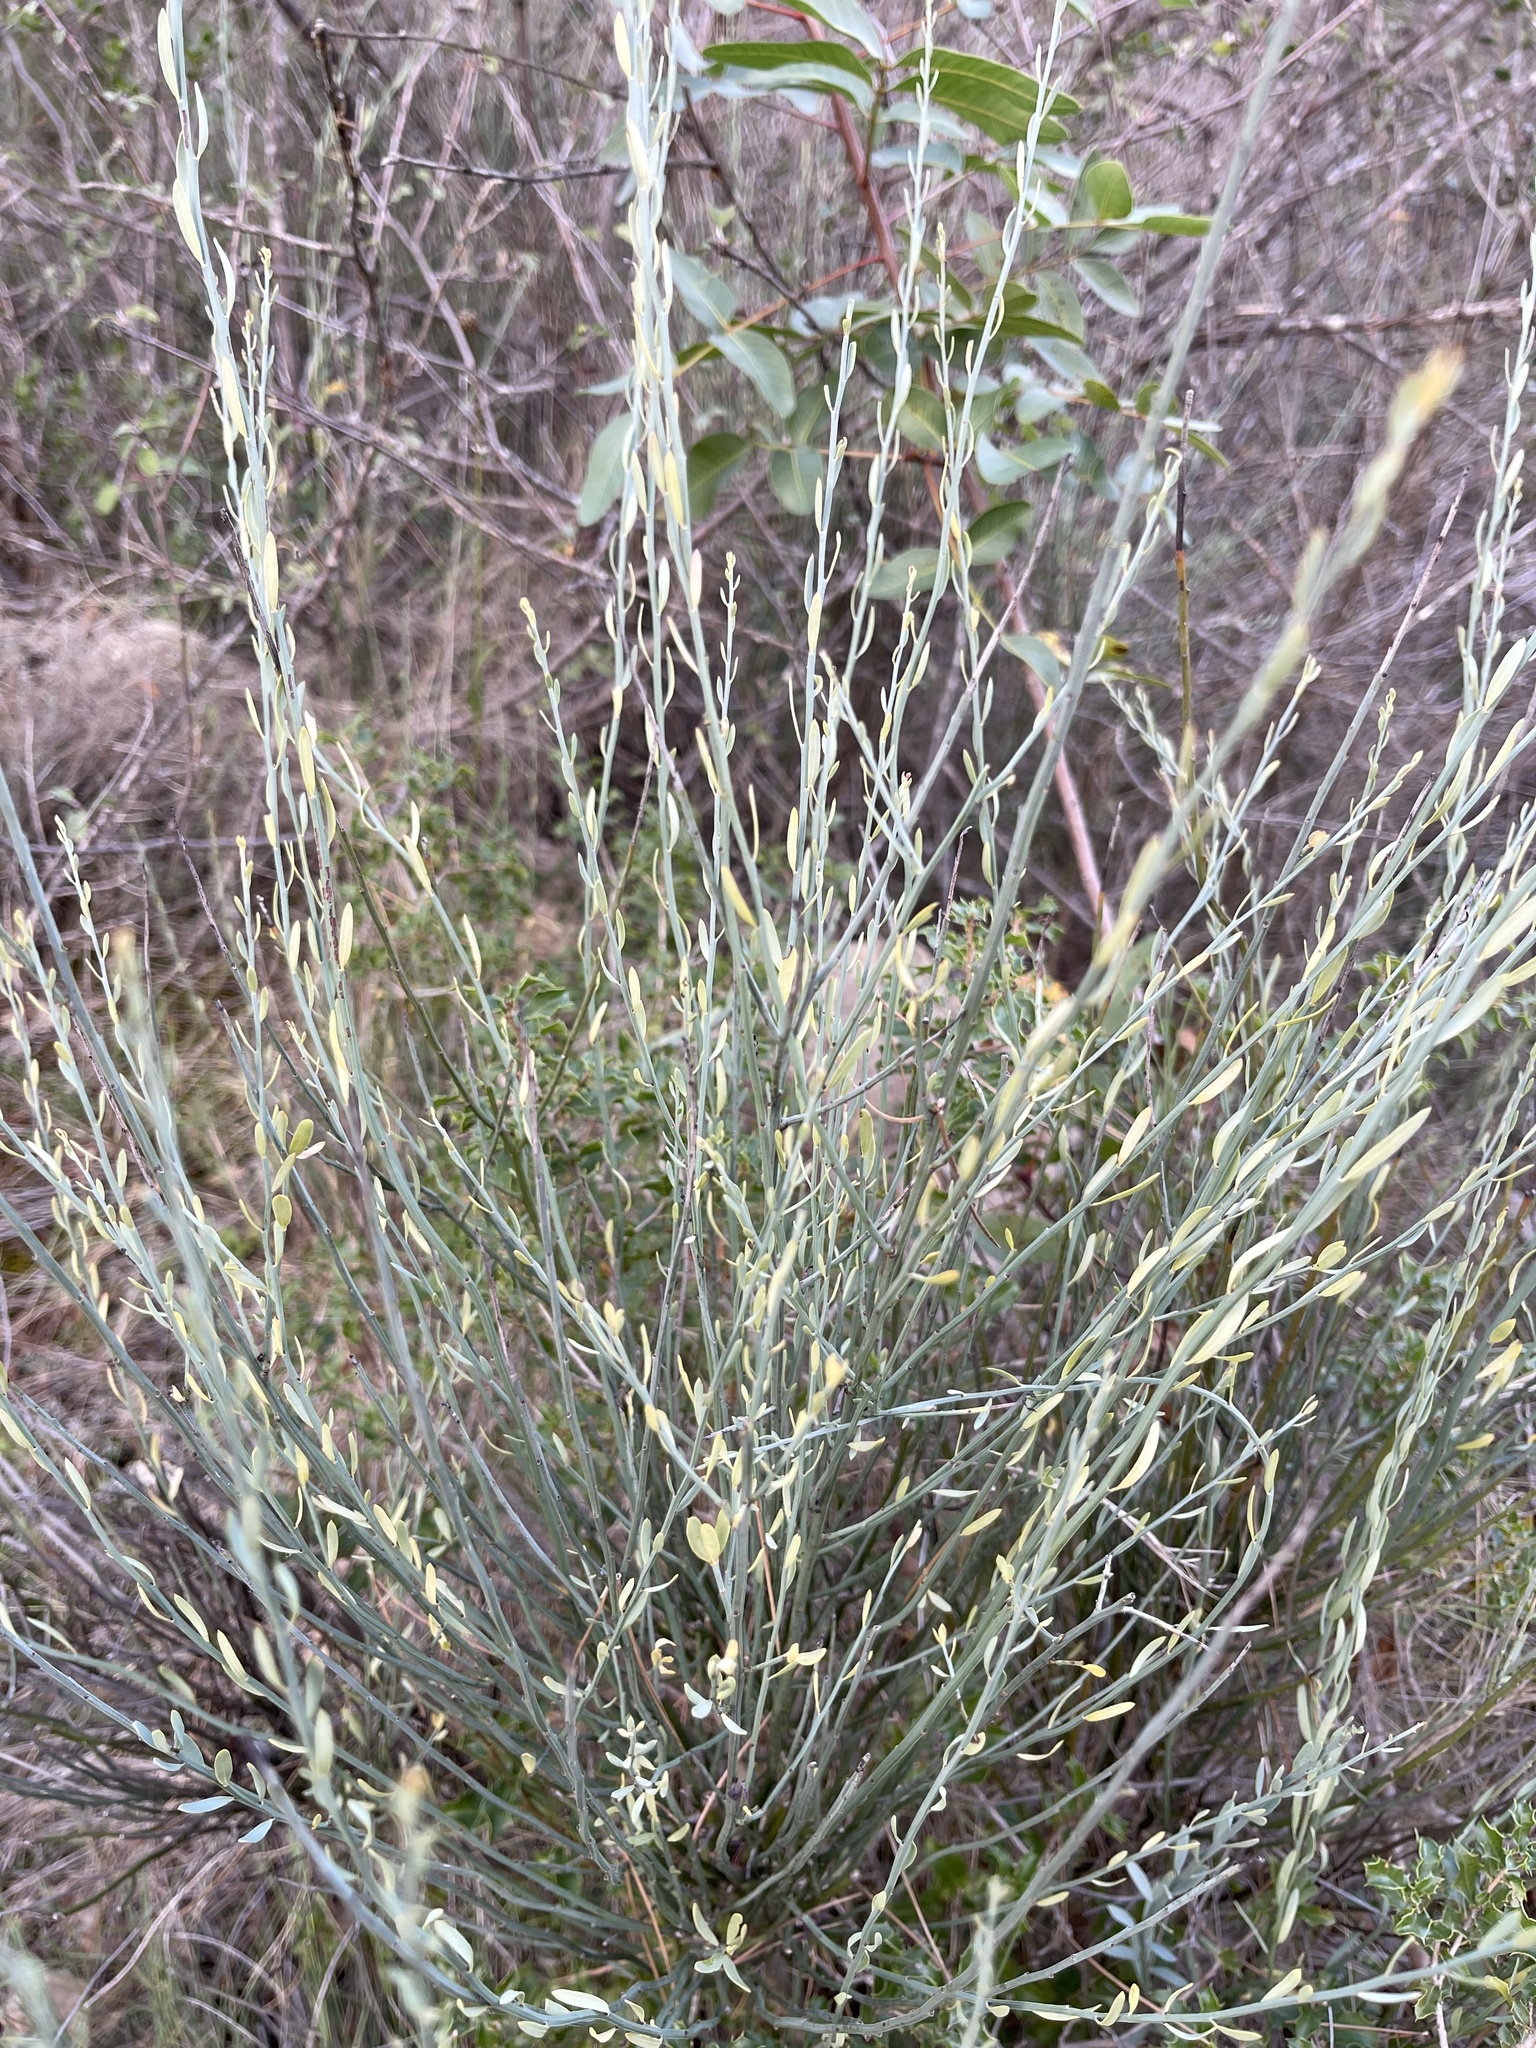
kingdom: Plantae
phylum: Tracheophyta
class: Magnoliopsida
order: Santalales
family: Santalaceae
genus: Osyris
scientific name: Osyris alba
